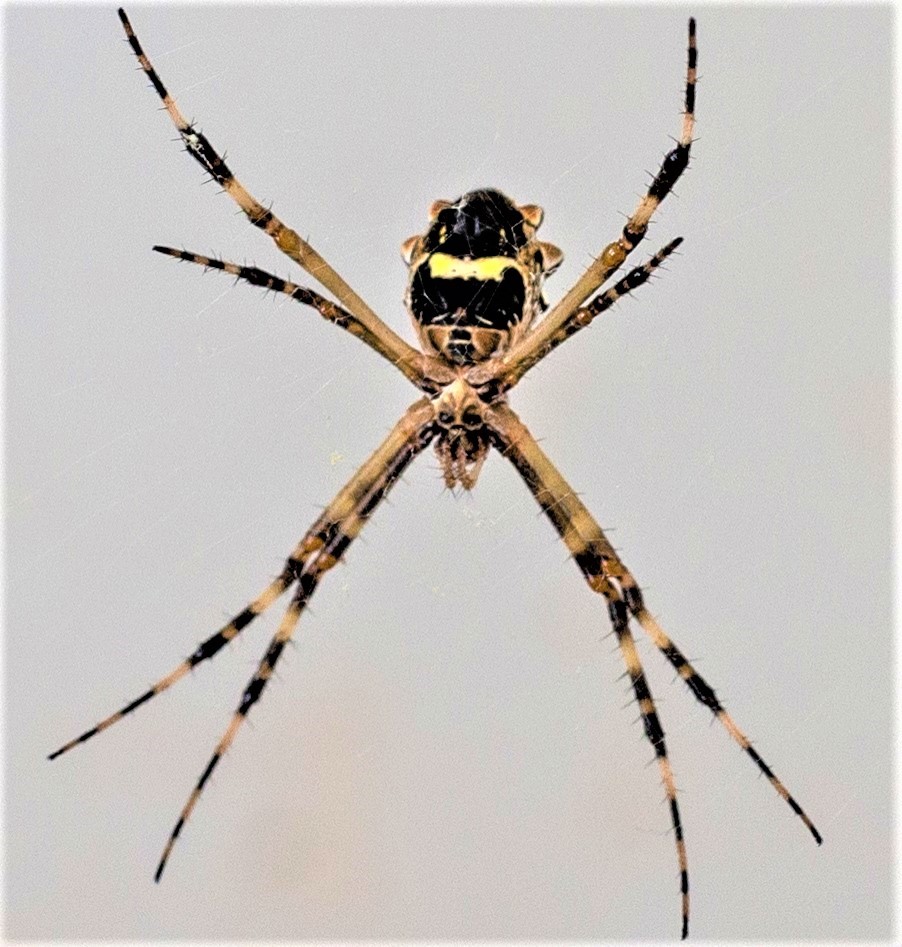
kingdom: Animalia
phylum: Arthropoda
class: Arachnida
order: Araneae
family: Araneidae
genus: Argiope
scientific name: Argiope argentata
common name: Orb weavers
